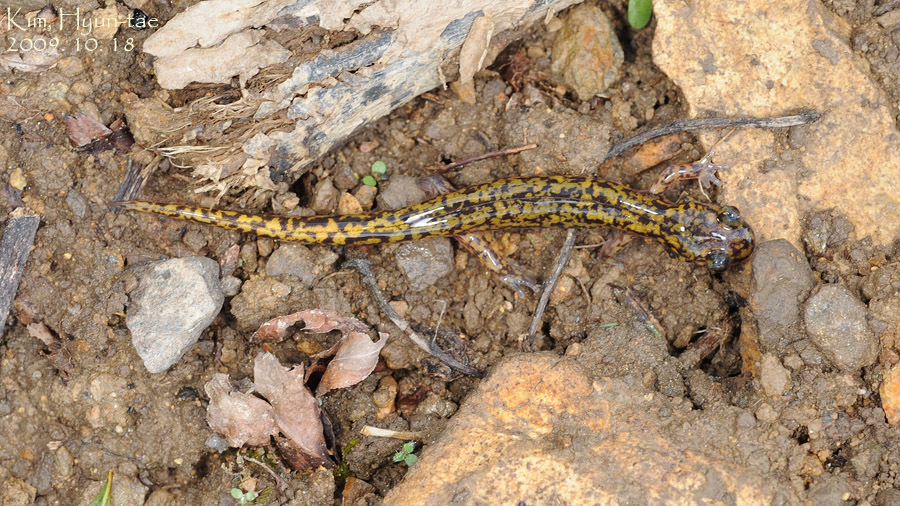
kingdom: Animalia
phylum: Chordata
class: Amphibia
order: Caudata
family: Hynobiidae
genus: Onychodactylus
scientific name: Onychodactylus koreanus
